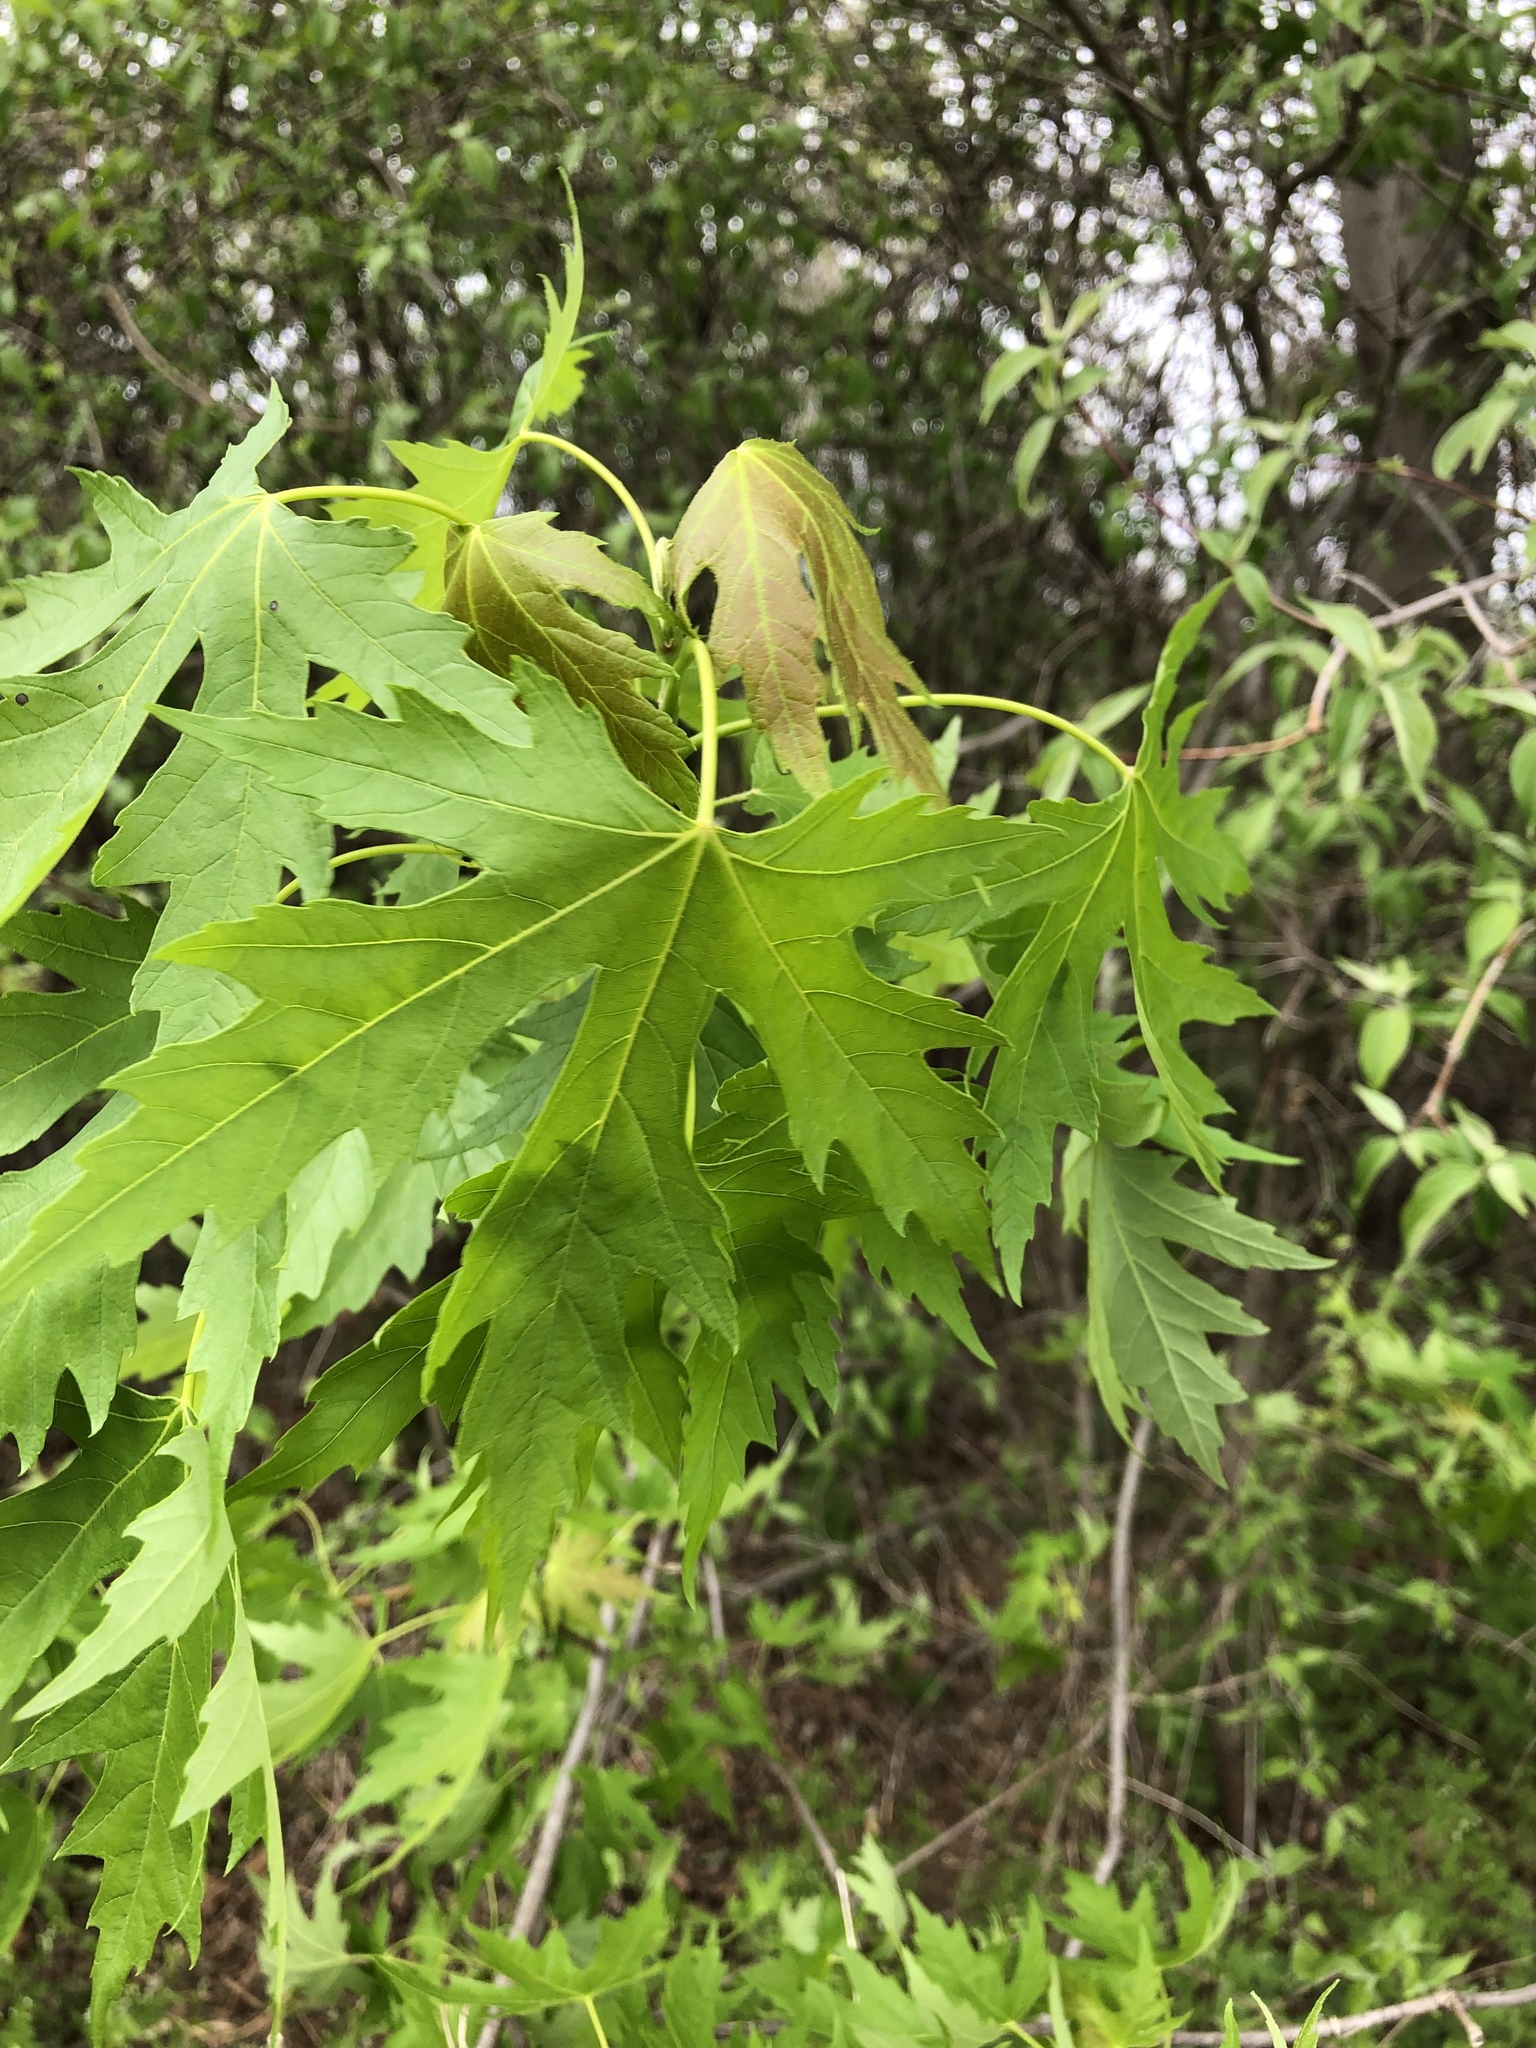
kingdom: Plantae
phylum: Tracheophyta
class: Magnoliopsida
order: Sapindales
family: Sapindaceae
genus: Acer
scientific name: Acer saccharinum
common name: Silver maple
